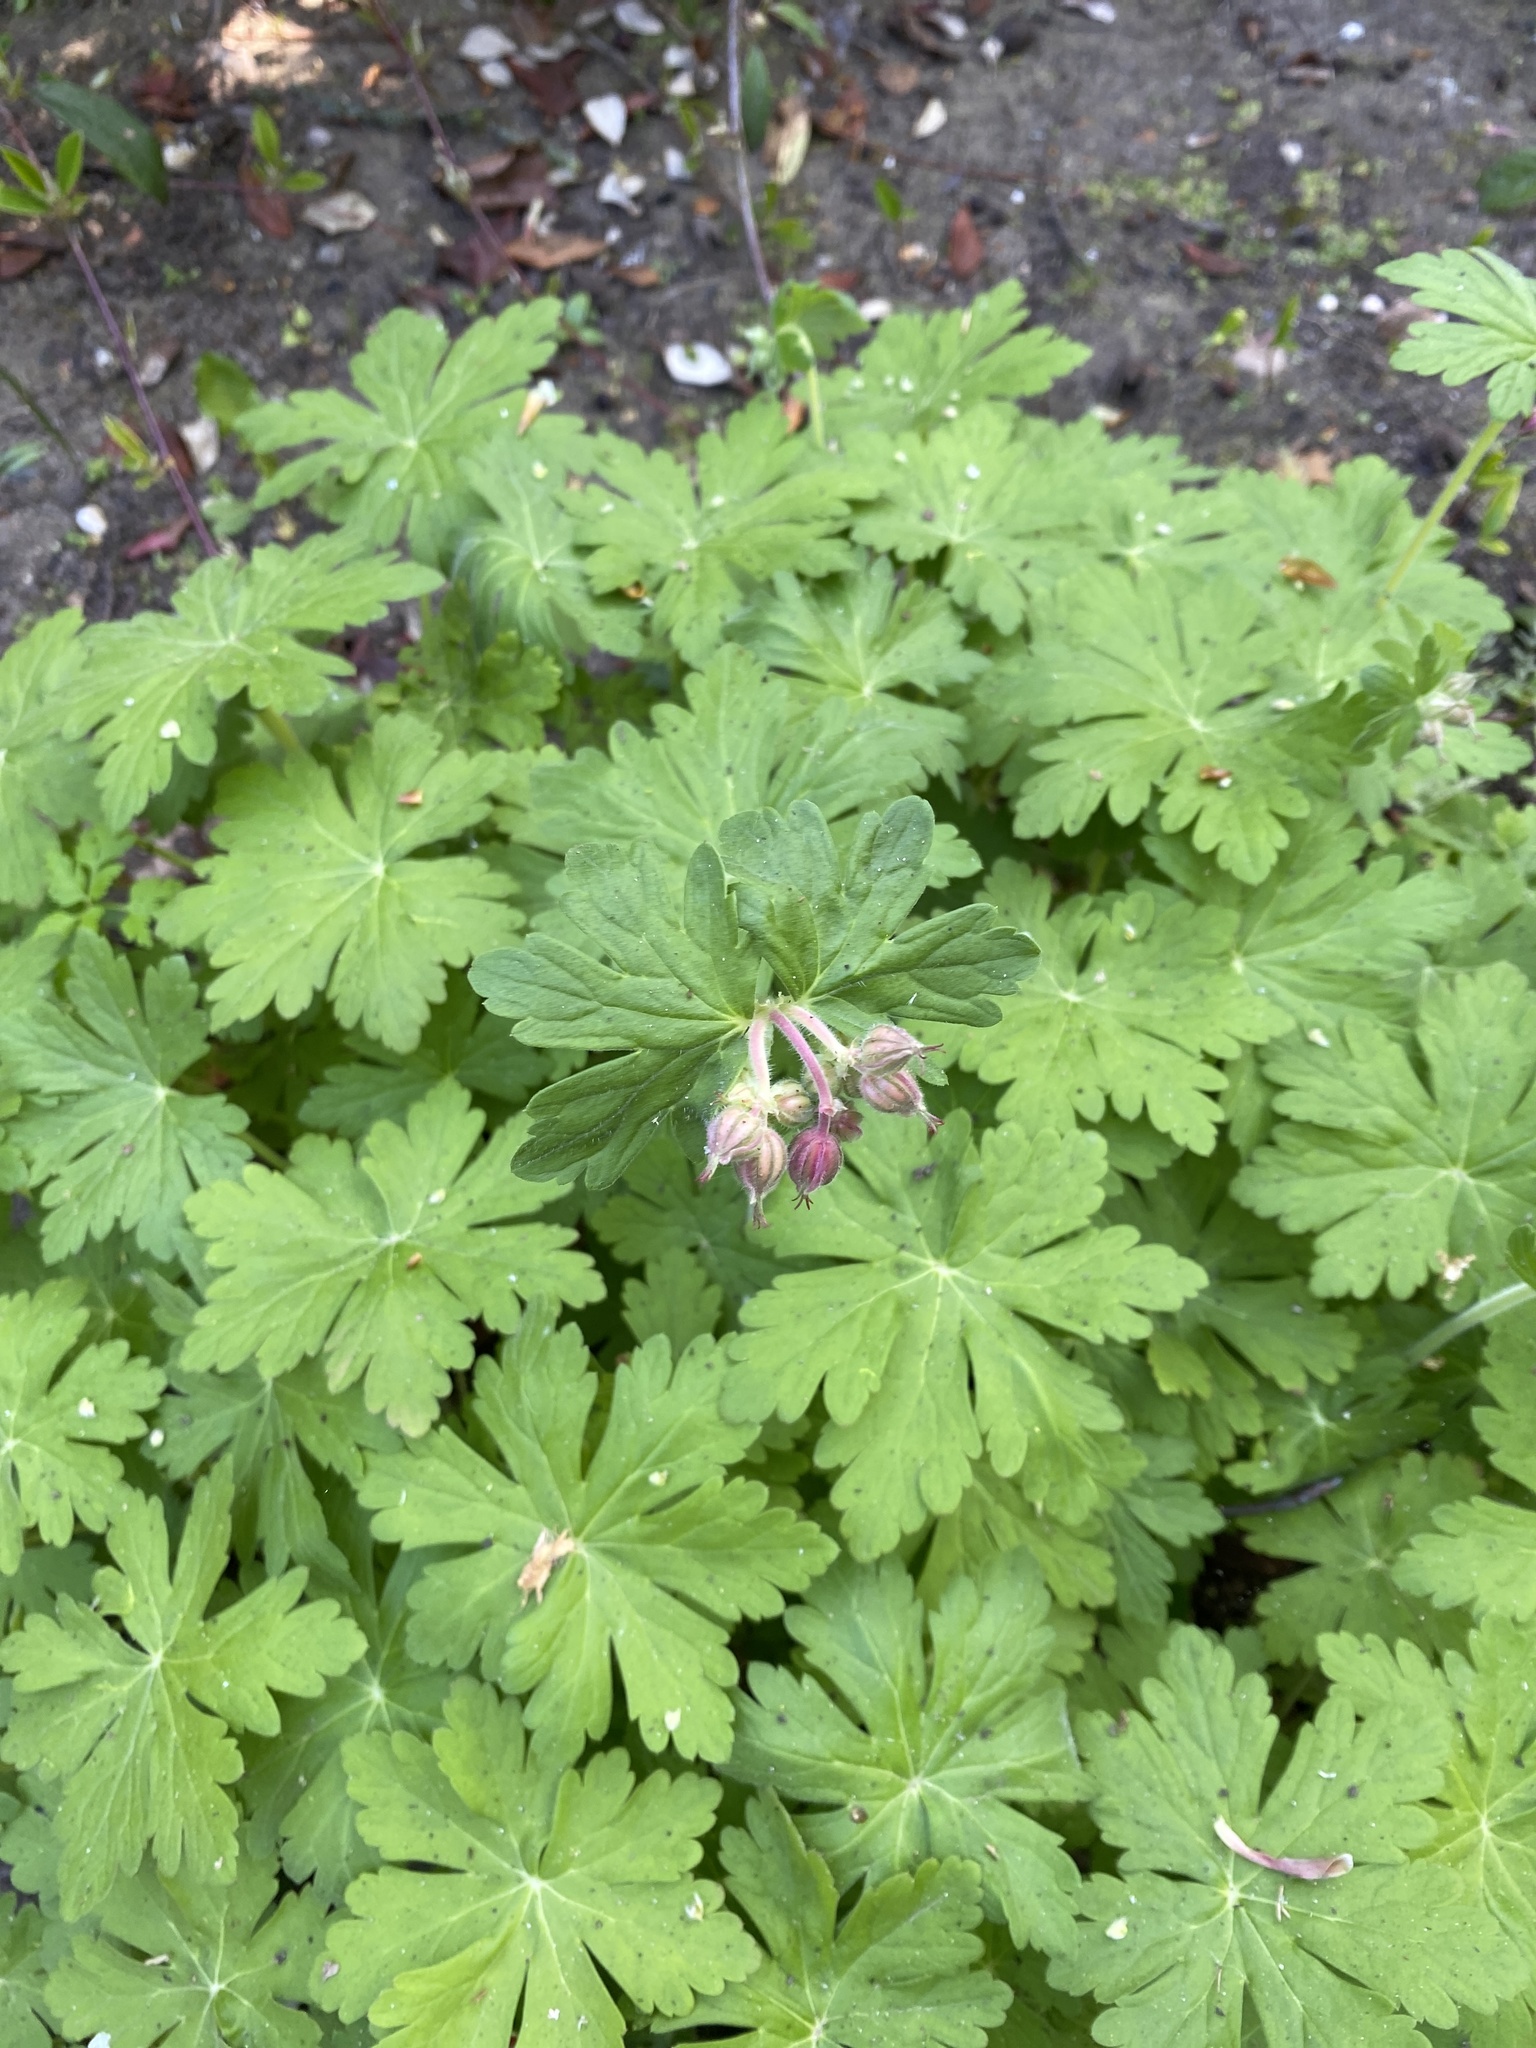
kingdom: Plantae
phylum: Tracheophyta
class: Magnoliopsida
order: Geraniales
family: Geraniaceae
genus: Geranium
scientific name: Geranium macrorrhizum
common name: Rock crane's-bill
